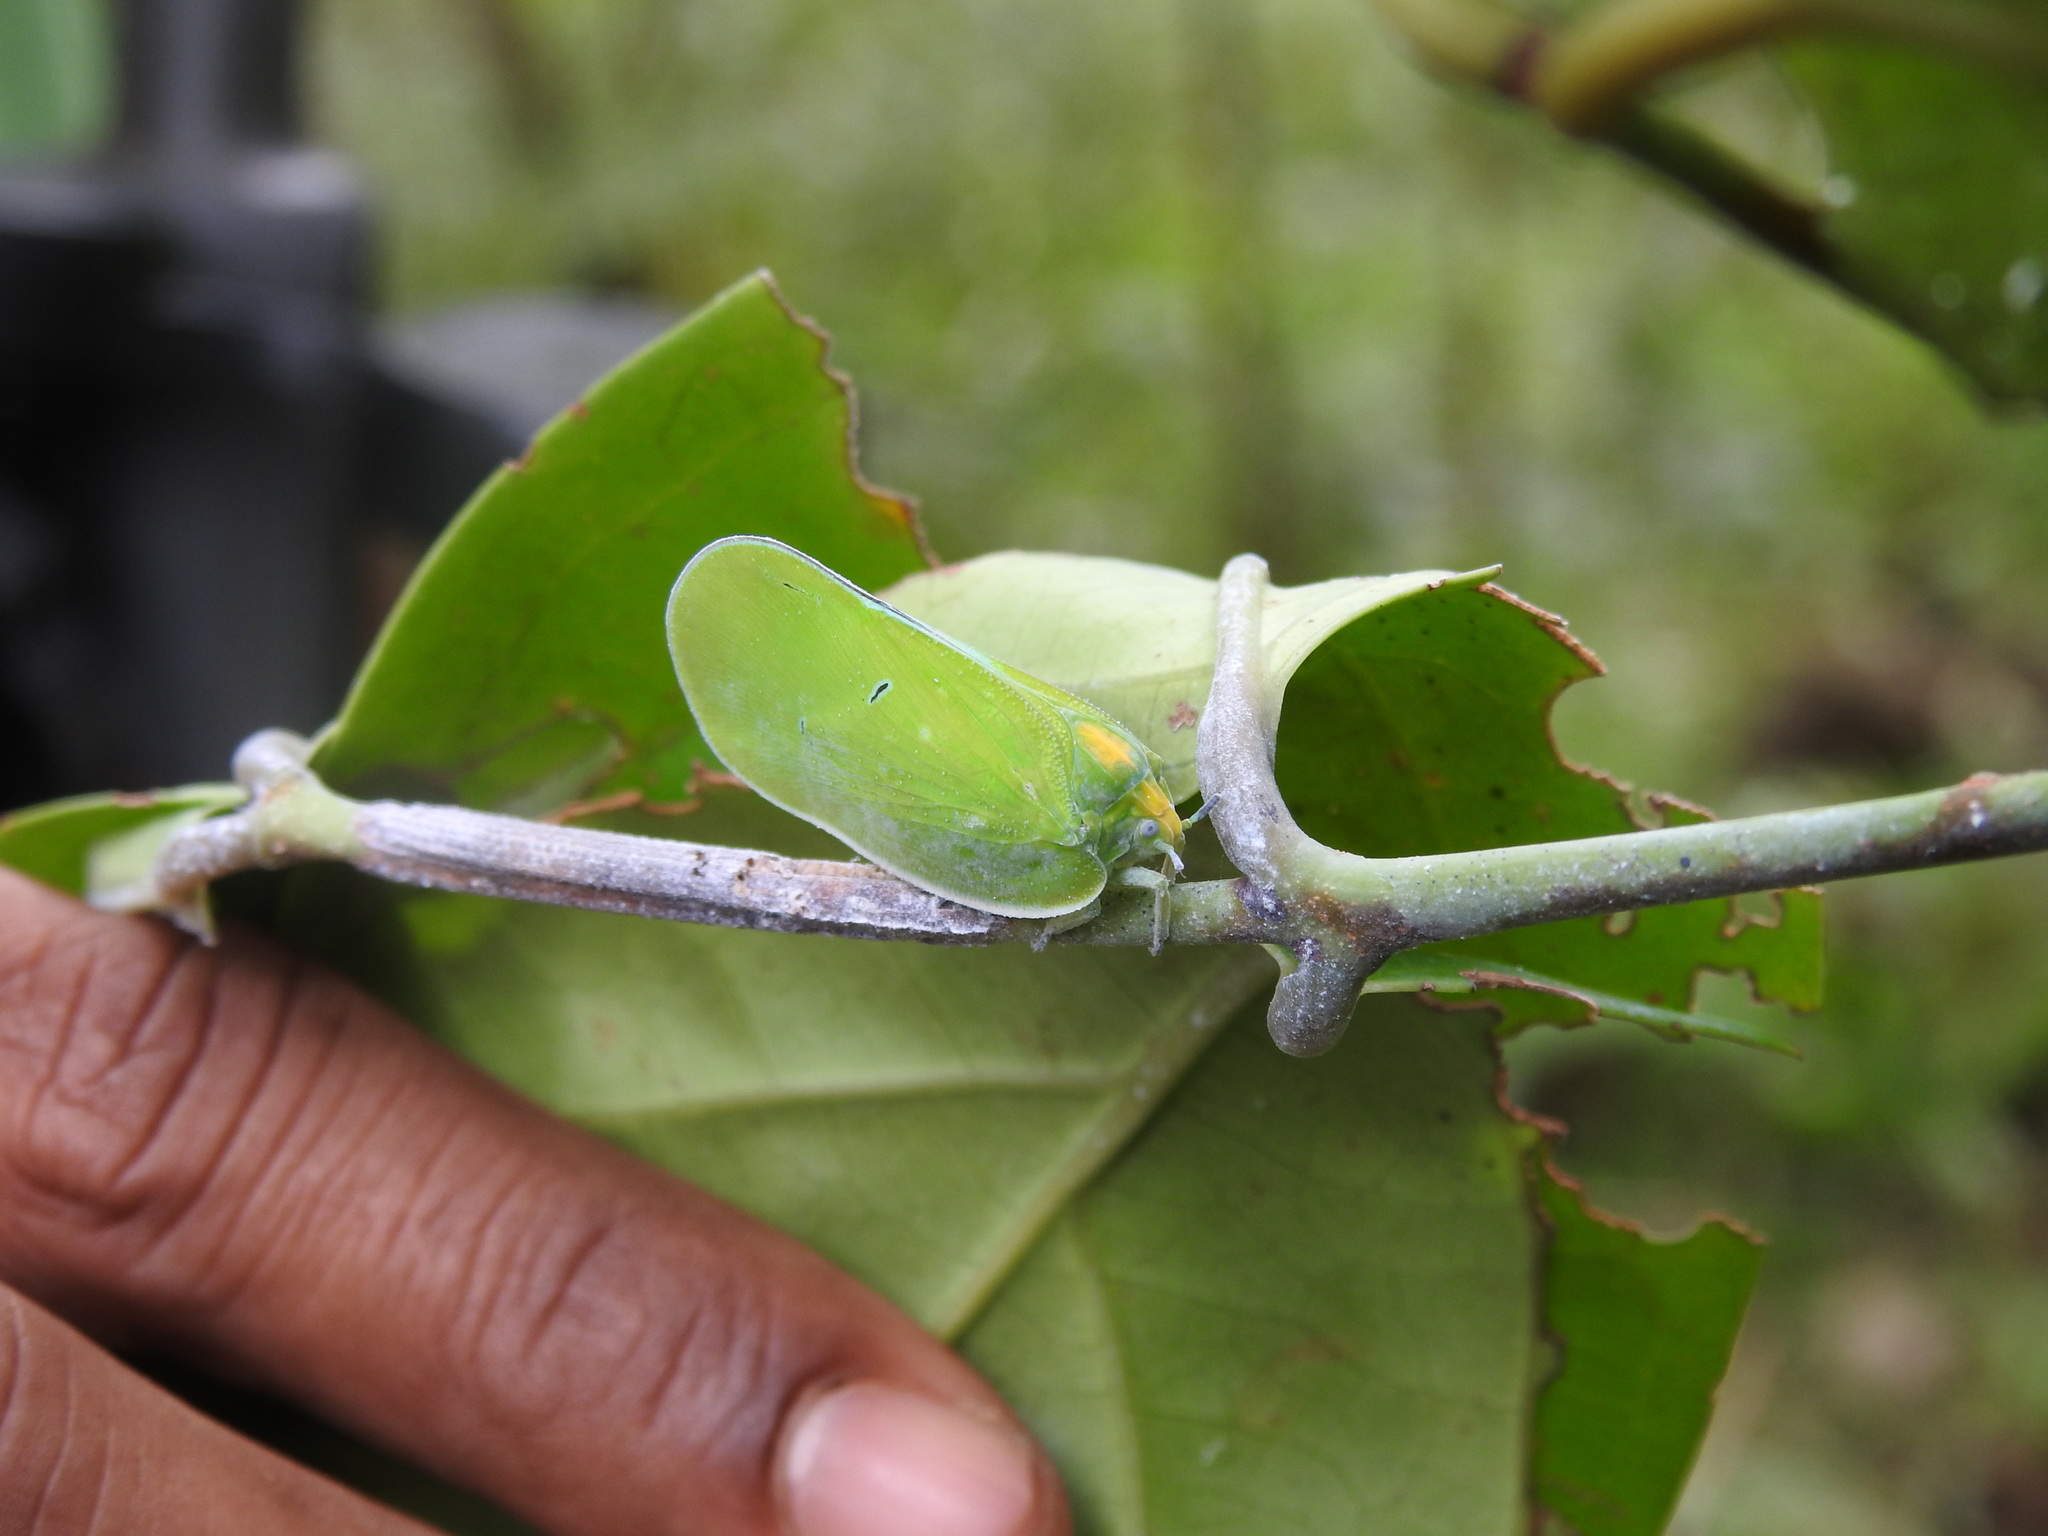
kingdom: Animalia
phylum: Arthropoda
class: Insecta
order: Hemiptera
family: Flatidae
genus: Flatida
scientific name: Flatida viridula
